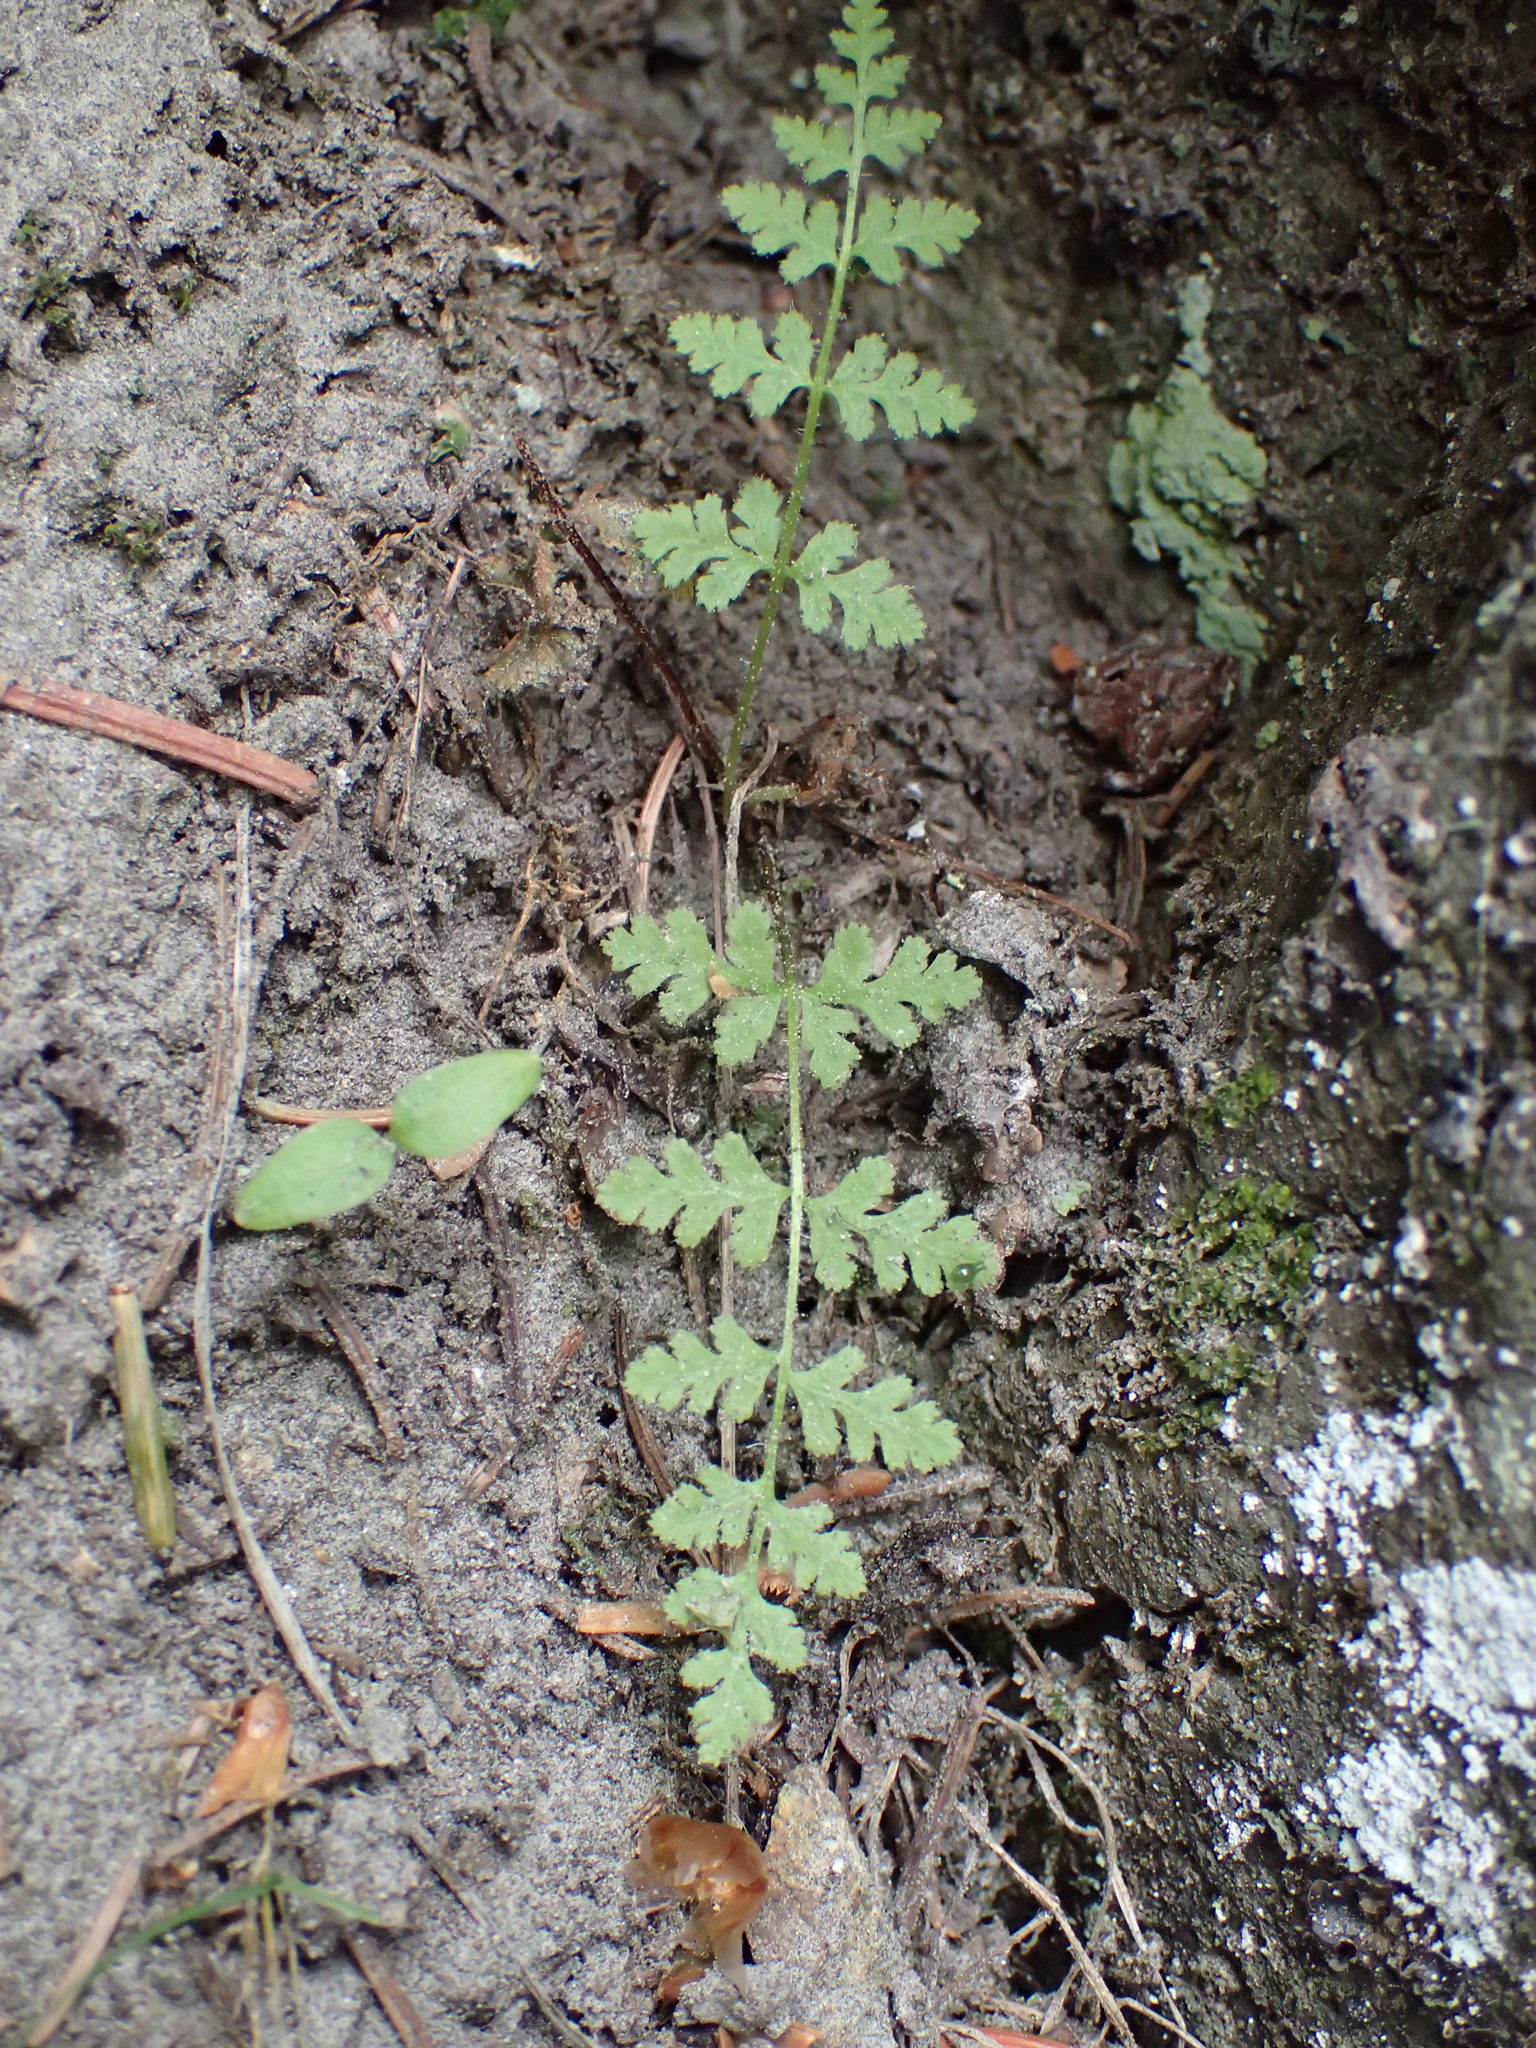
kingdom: Plantae
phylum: Tracheophyta
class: Polypodiopsida
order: Polypodiales
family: Cystopteridaceae
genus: Cystopteris
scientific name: Cystopteris fragilis
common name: Brittle bladder fern
